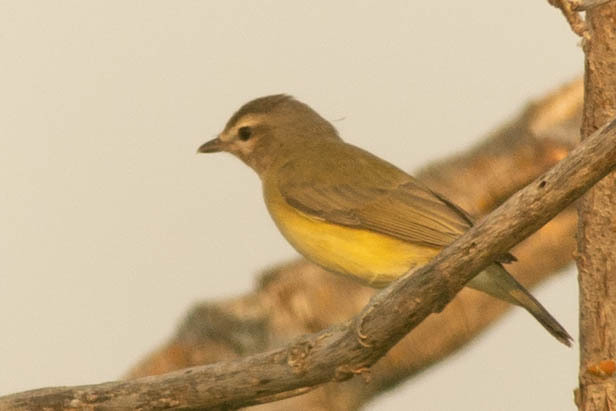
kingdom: Animalia
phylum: Chordata
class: Aves
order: Passeriformes
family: Vireonidae
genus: Vireo
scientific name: Vireo philadelphicus
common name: Philadelphia vireo
